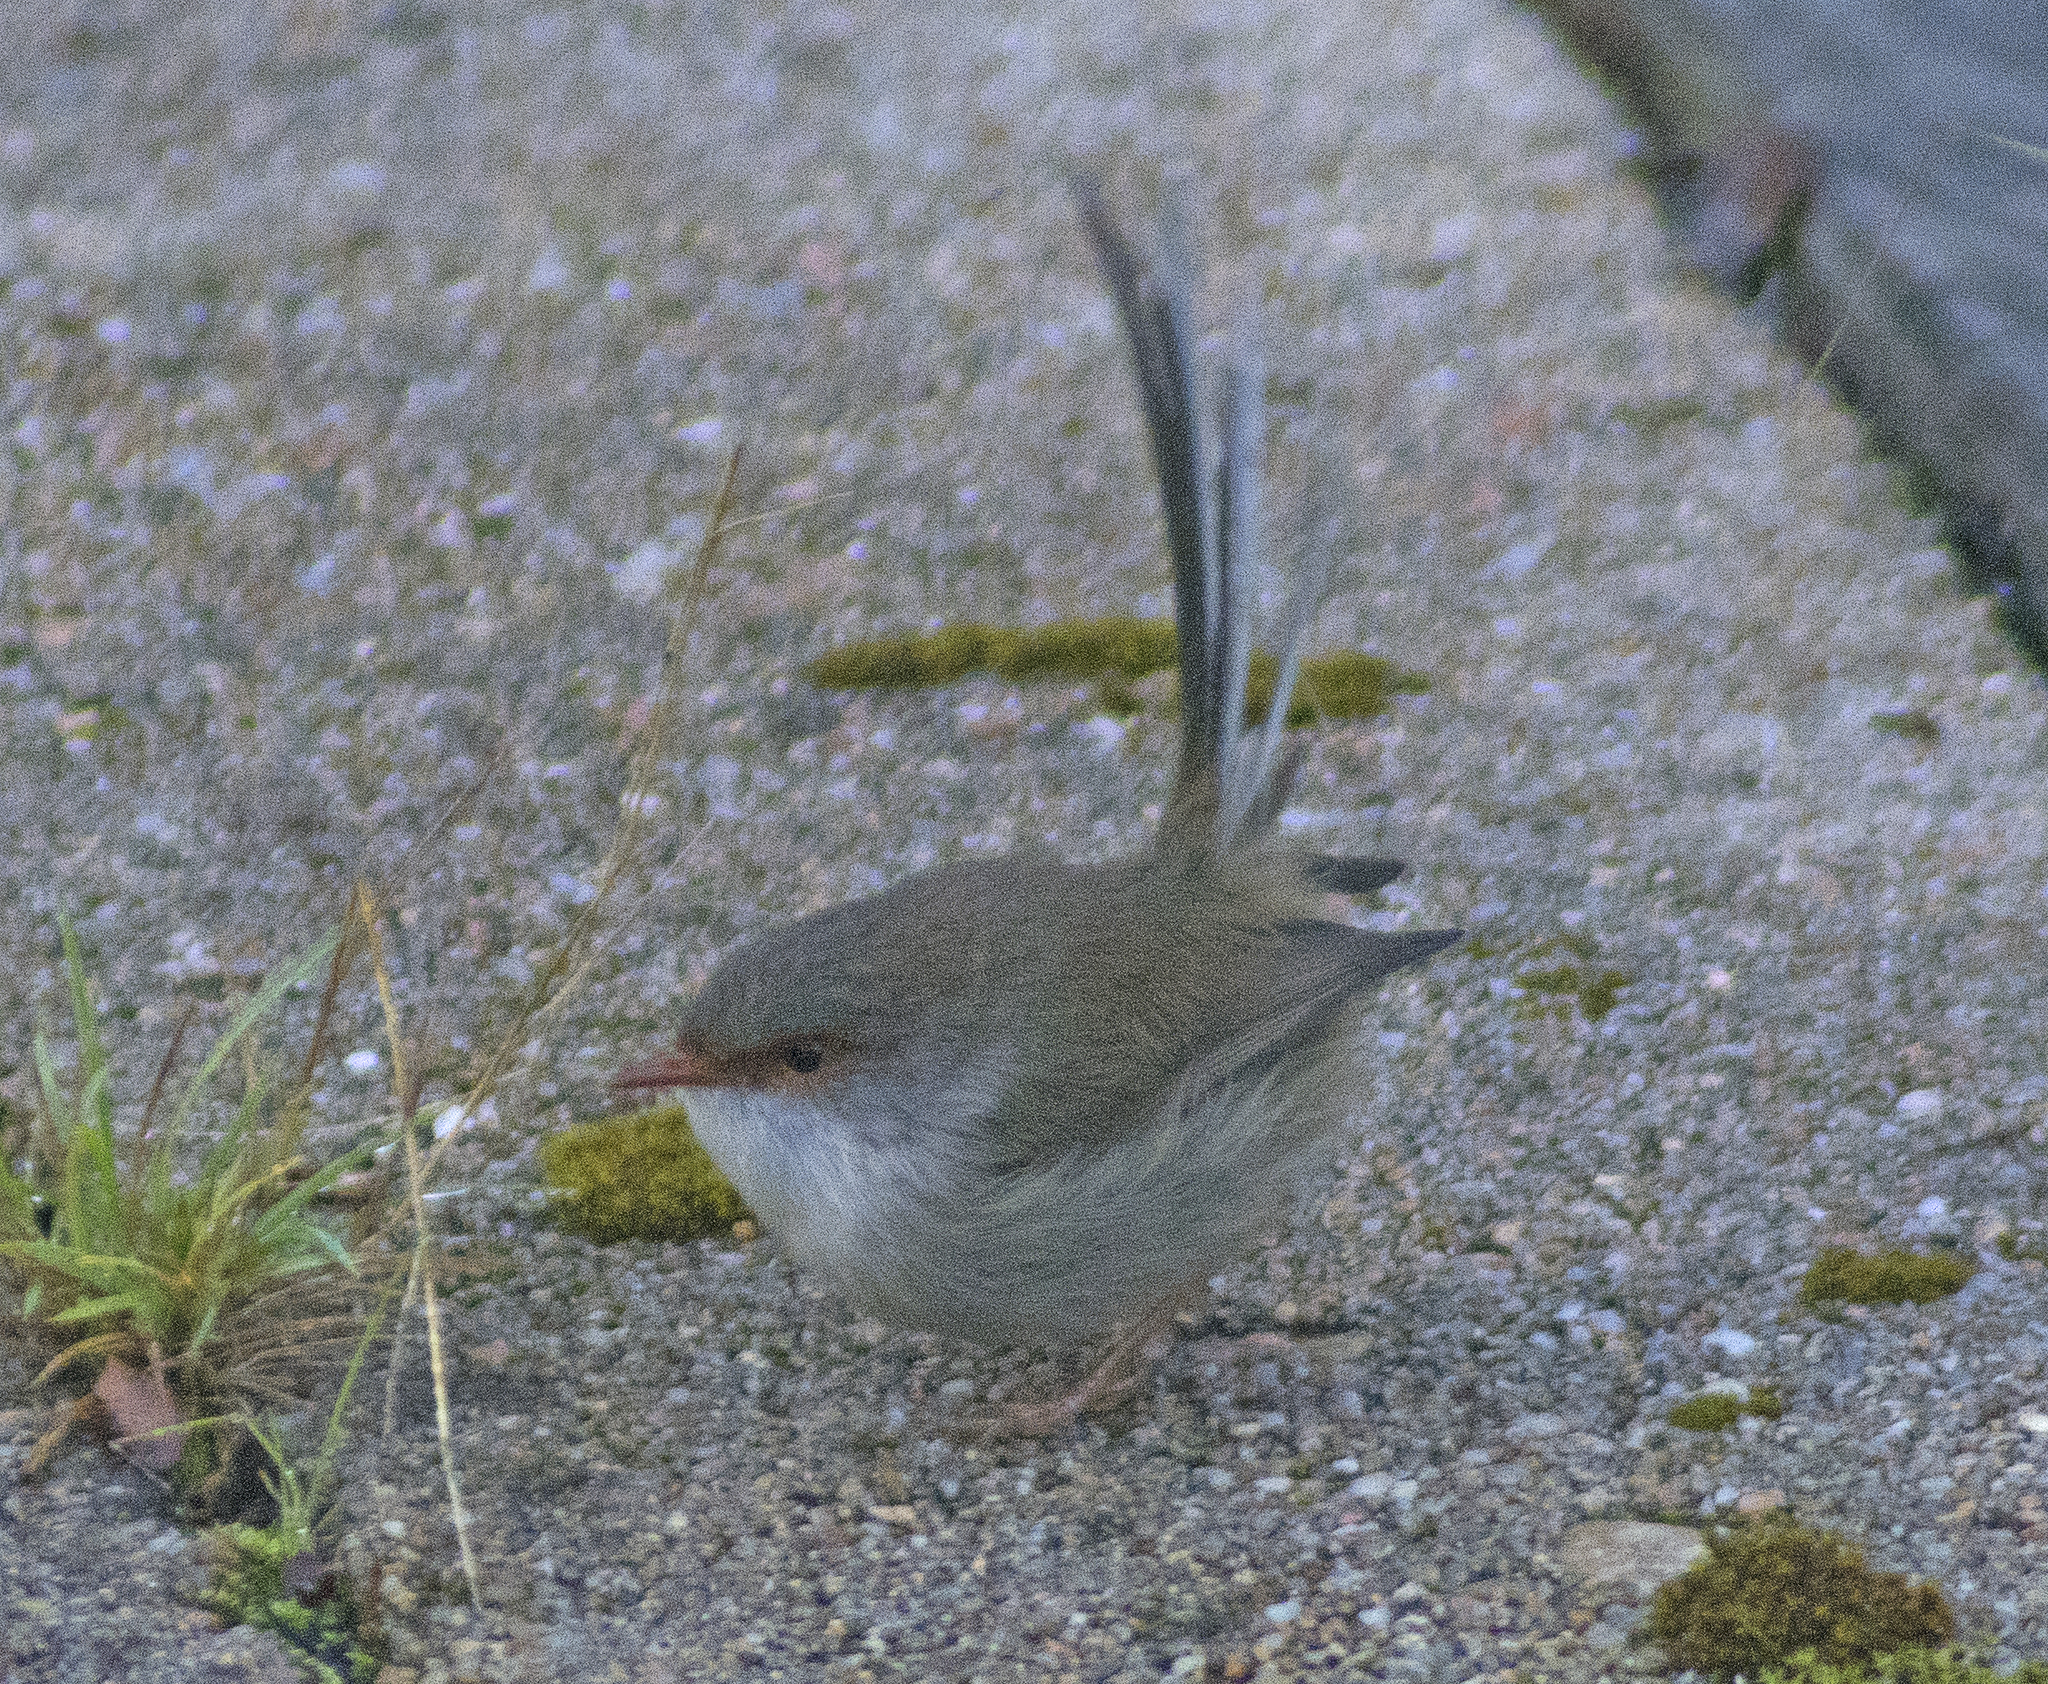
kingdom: Animalia
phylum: Chordata
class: Aves
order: Passeriformes
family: Maluridae
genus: Malurus
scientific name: Malurus cyaneus
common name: Superb fairywren
